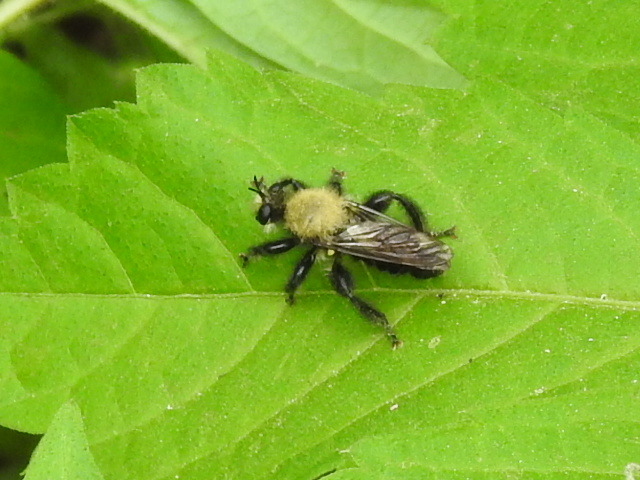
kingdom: Animalia
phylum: Arthropoda
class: Insecta
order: Diptera
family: Asilidae
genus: Laphria
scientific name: Laphria flavicollis
